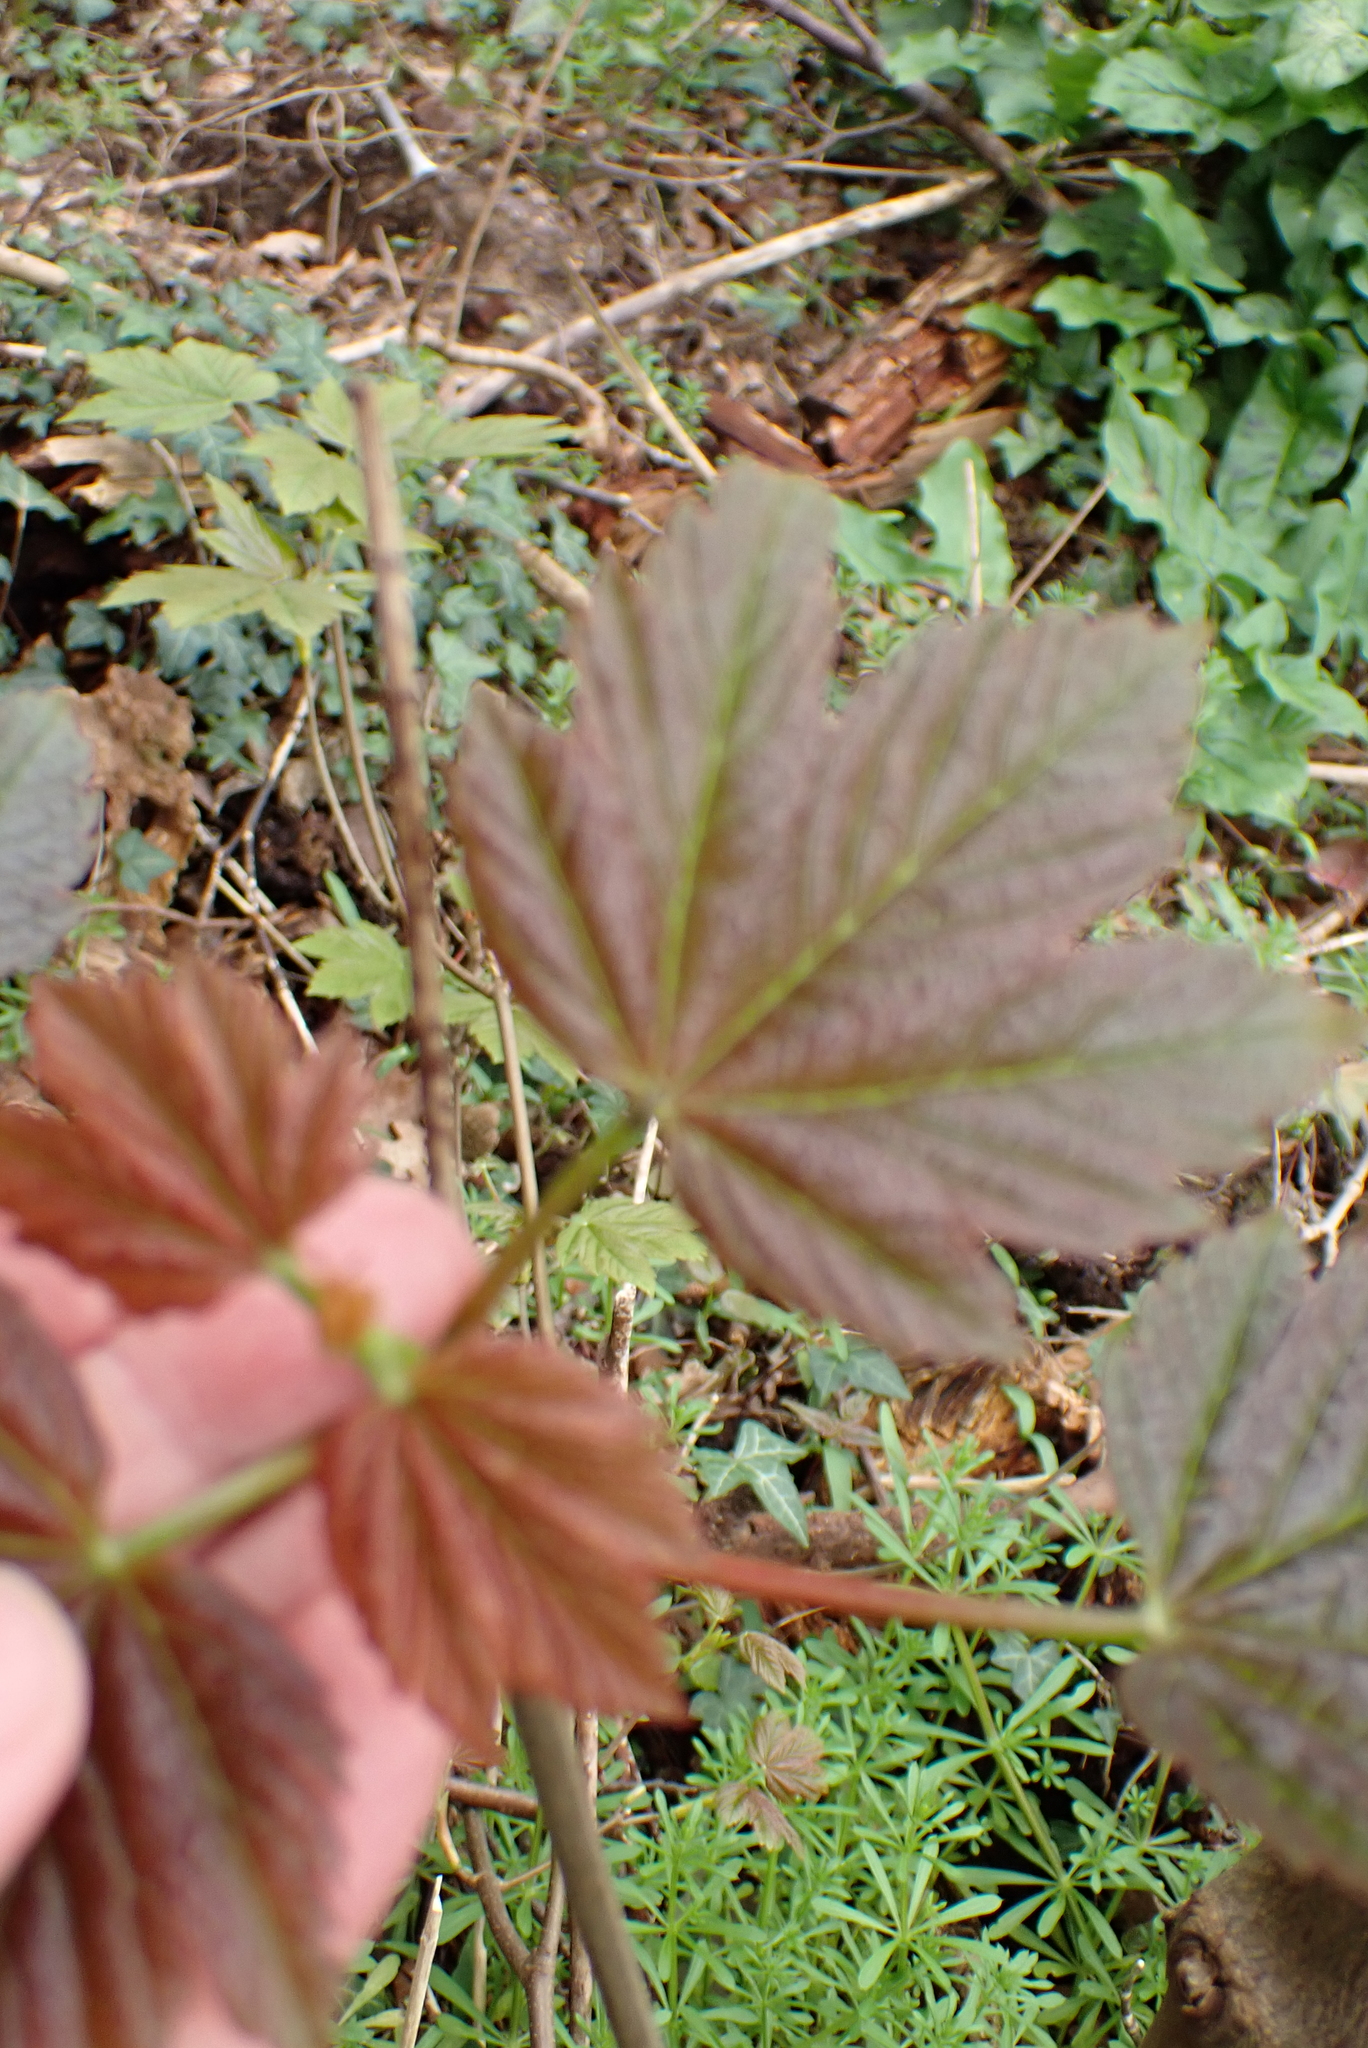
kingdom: Plantae
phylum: Tracheophyta
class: Magnoliopsida
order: Sapindales
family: Sapindaceae
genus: Acer
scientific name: Acer pseudoplatanus
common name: Sycamore
